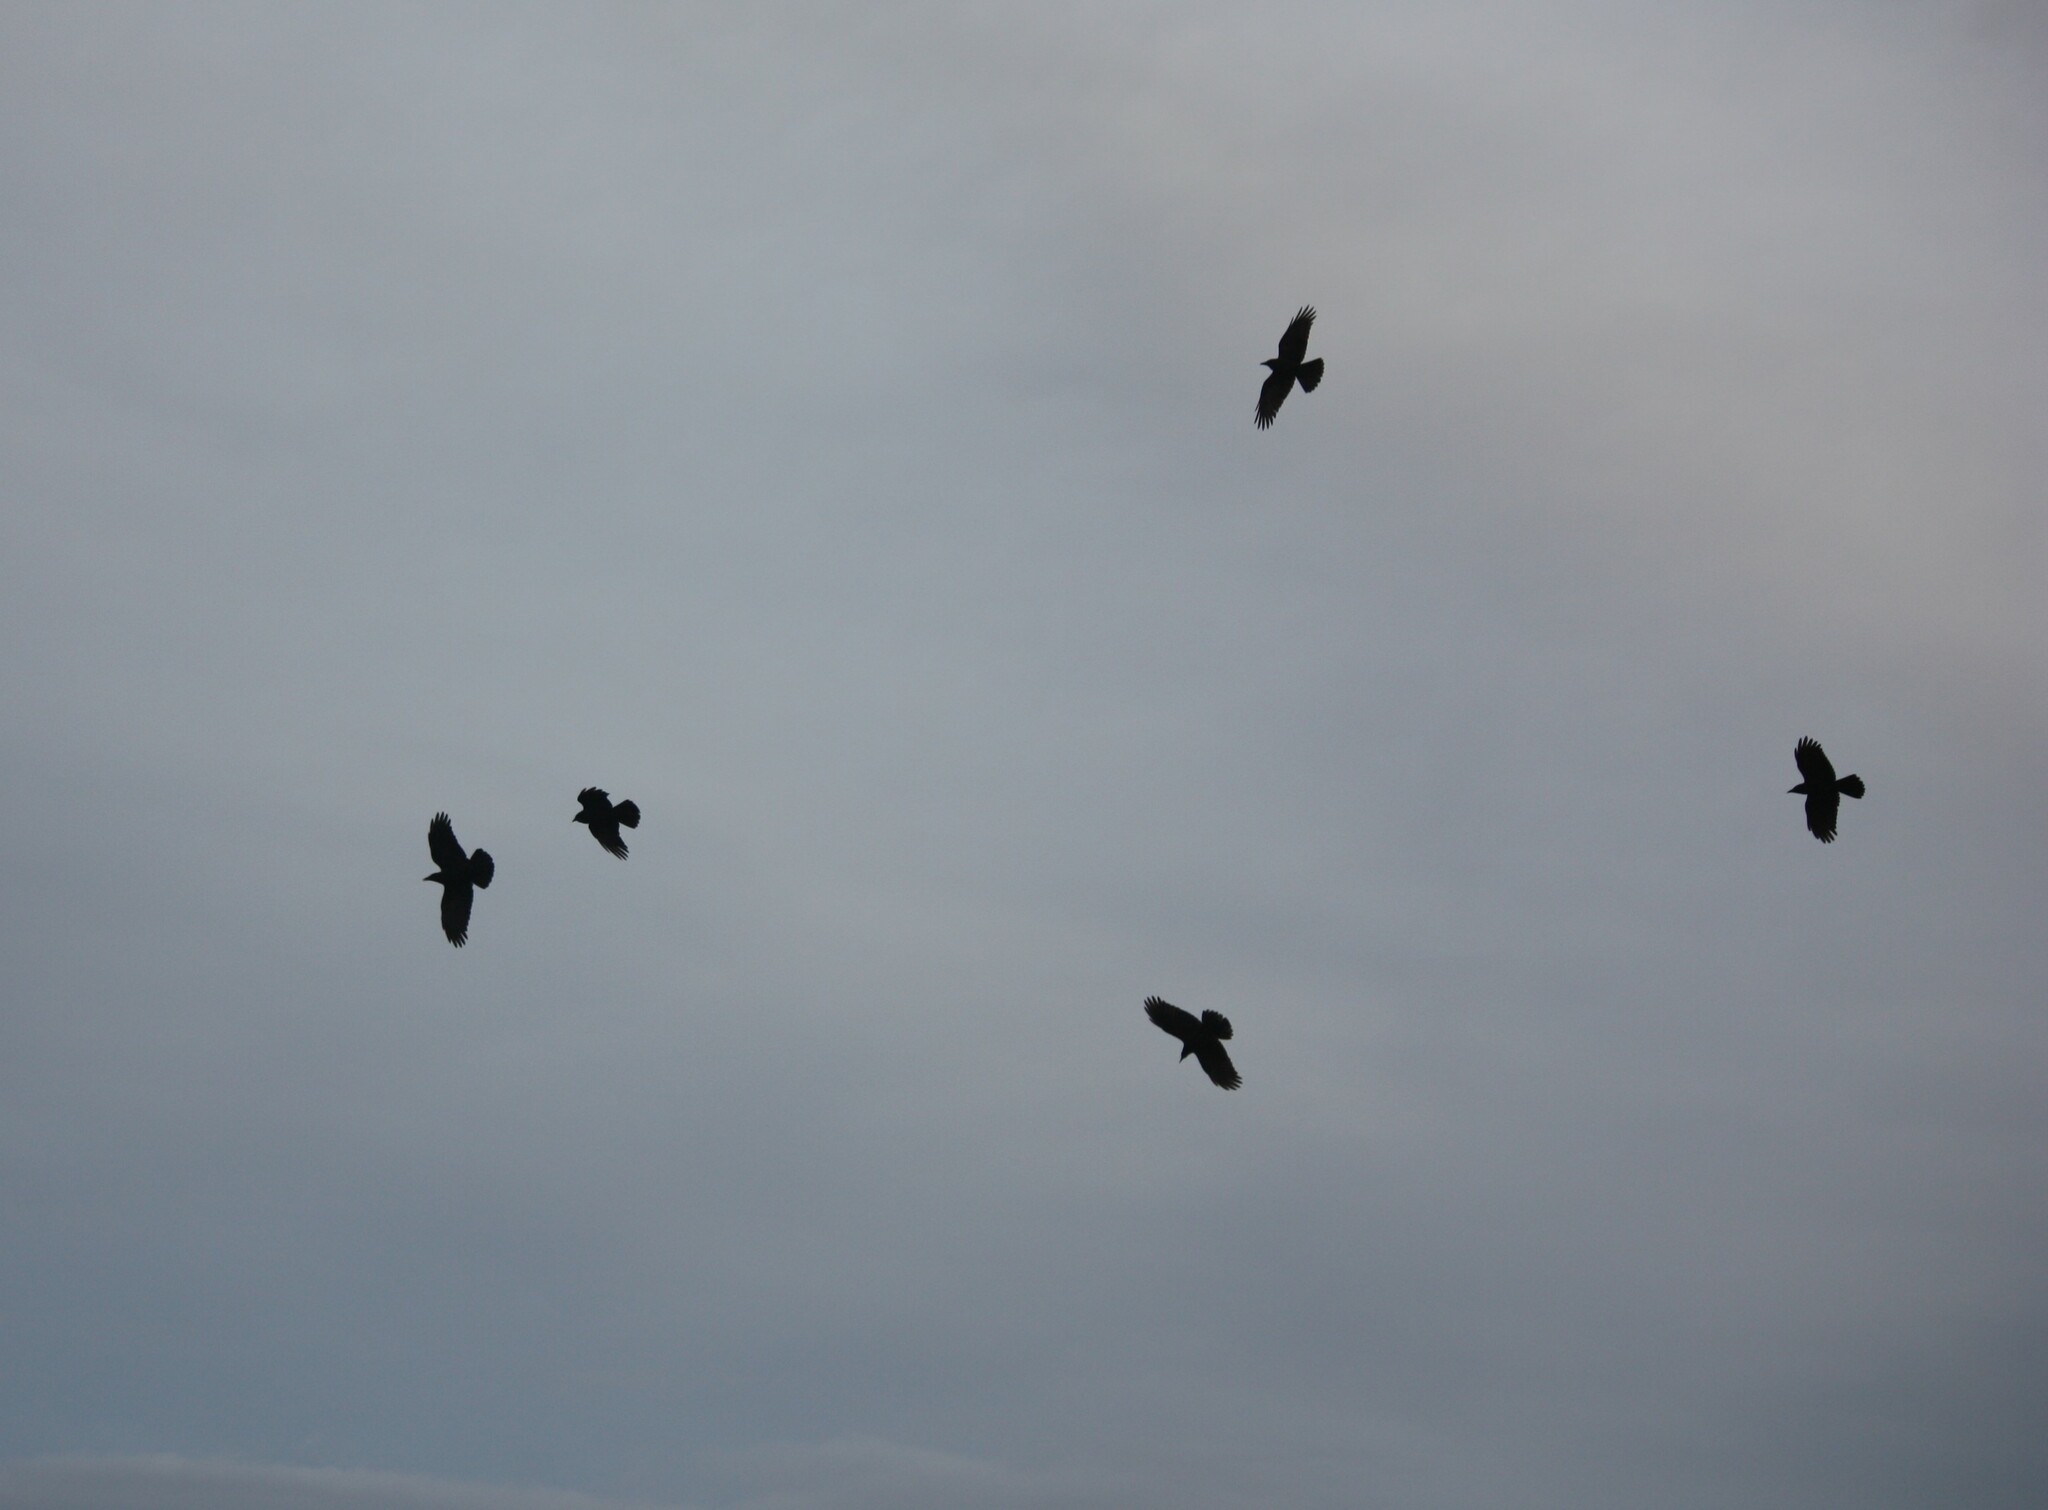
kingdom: Animalia
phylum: Chordata
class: Aves
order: Passeriformes
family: Corvidae
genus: Corvus
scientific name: Corvus brachyrhynchos
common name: American crow
